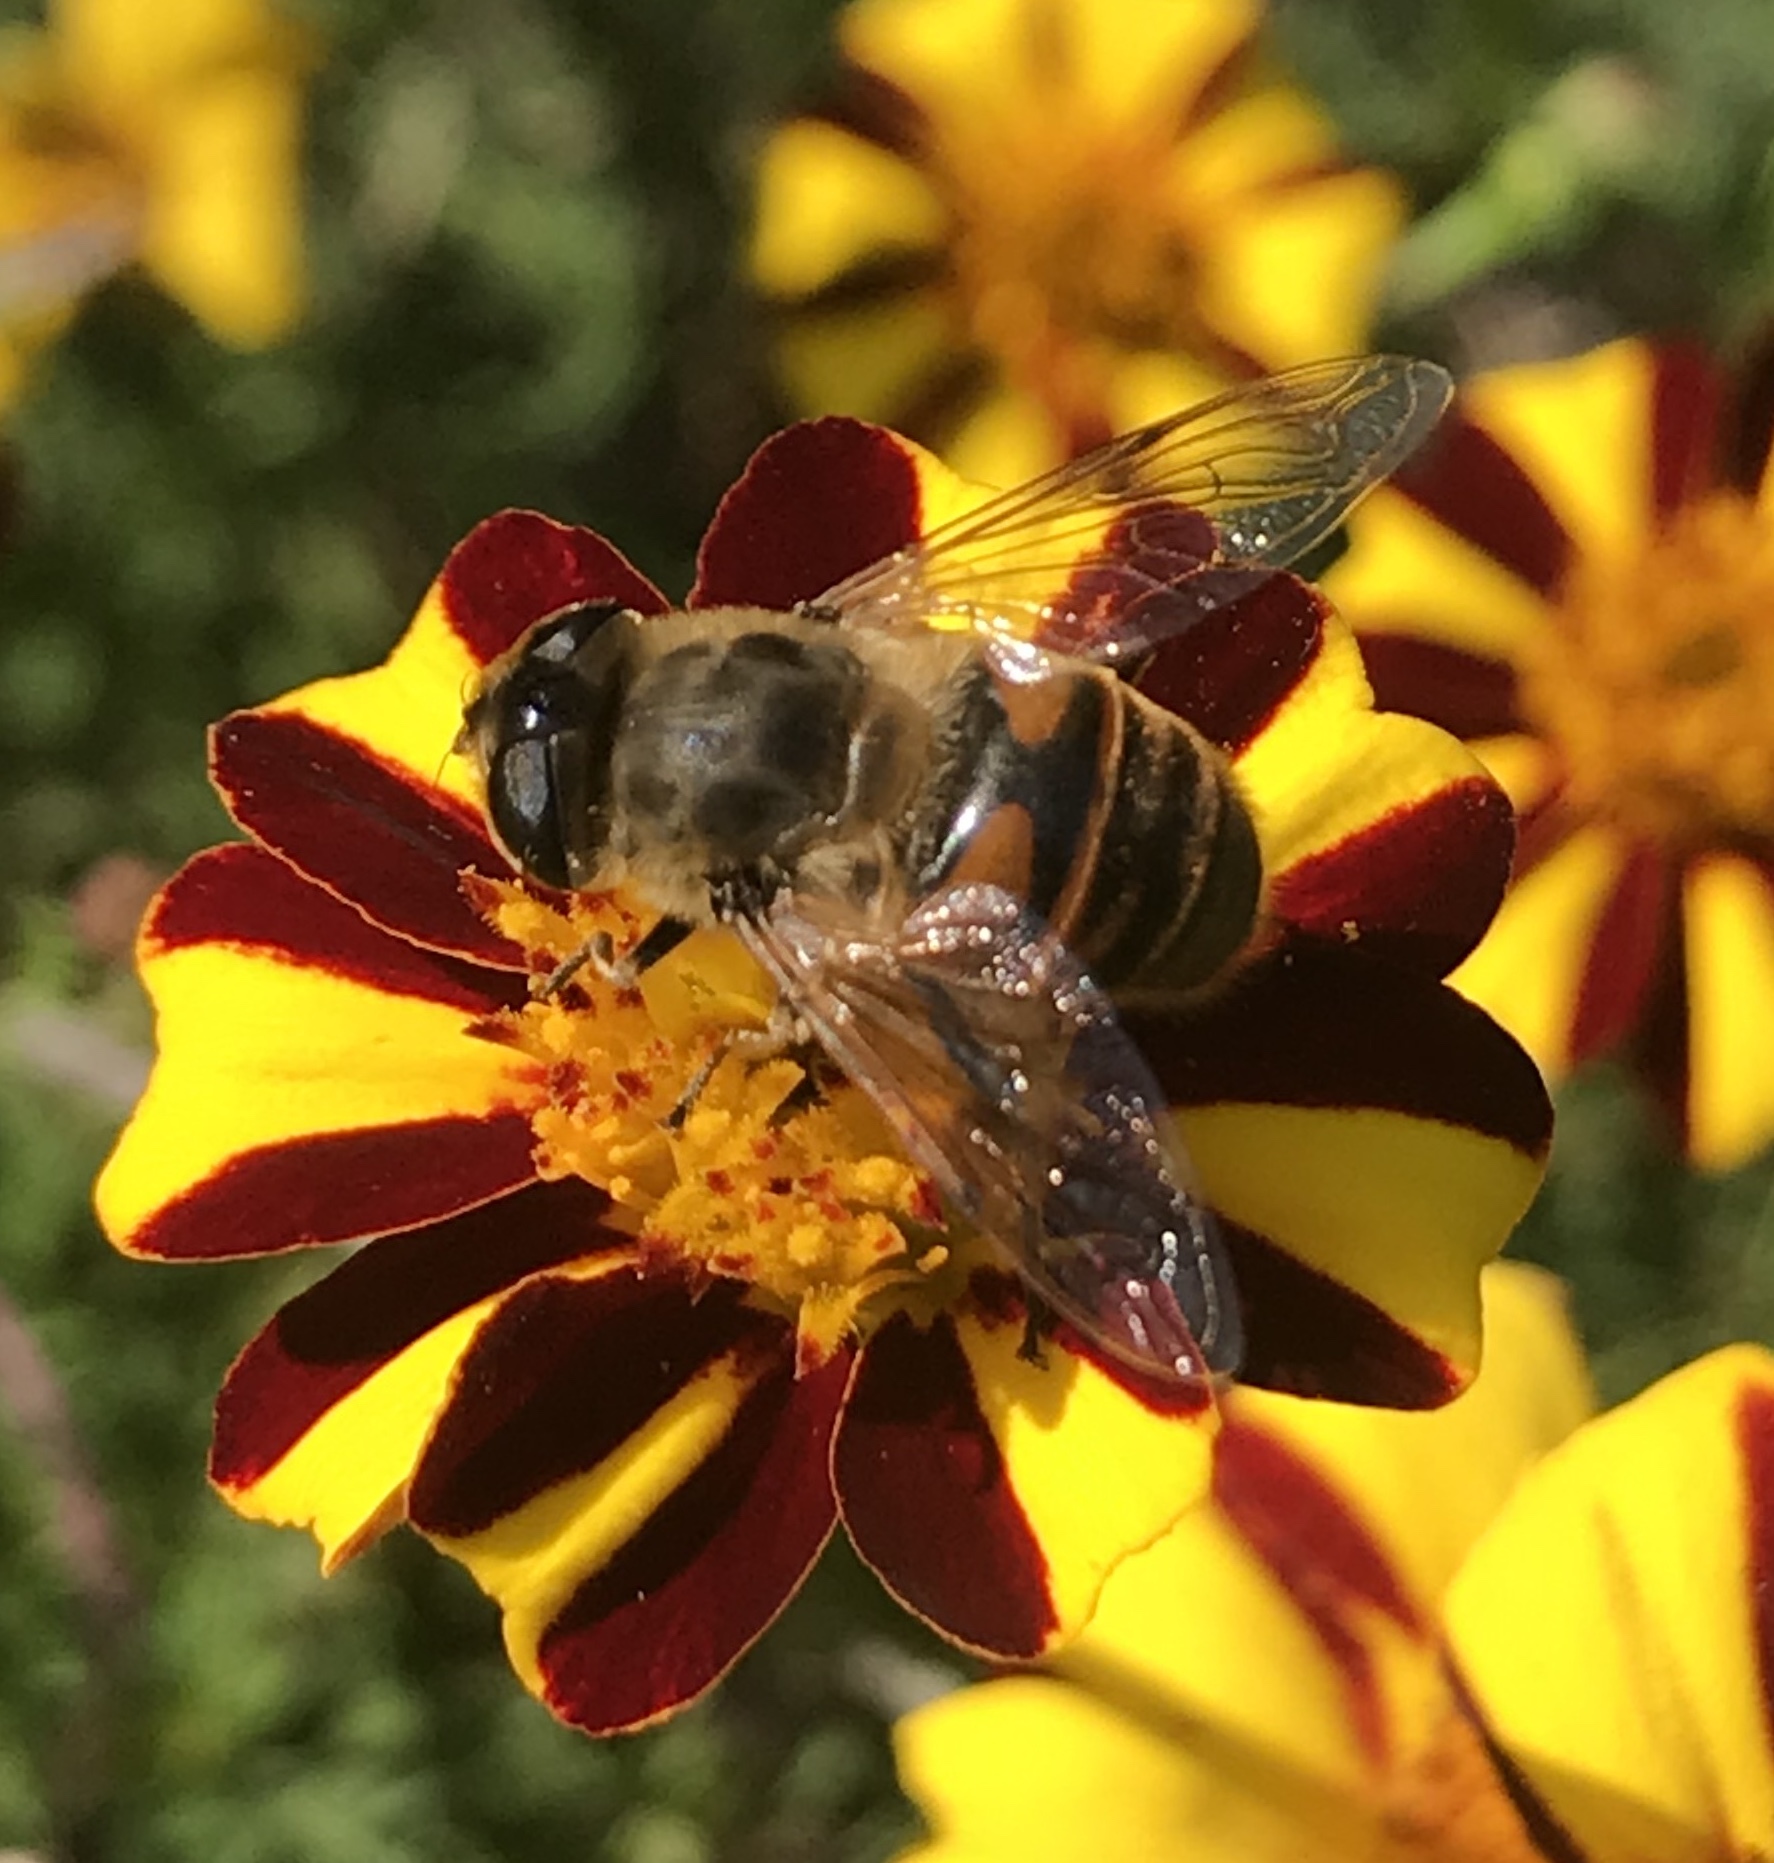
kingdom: Animalia
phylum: Arthropoda
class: Insecta
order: Diptera
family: Syrphidae
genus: Eristalis
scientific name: Eristalis tenax
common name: Drone fly
